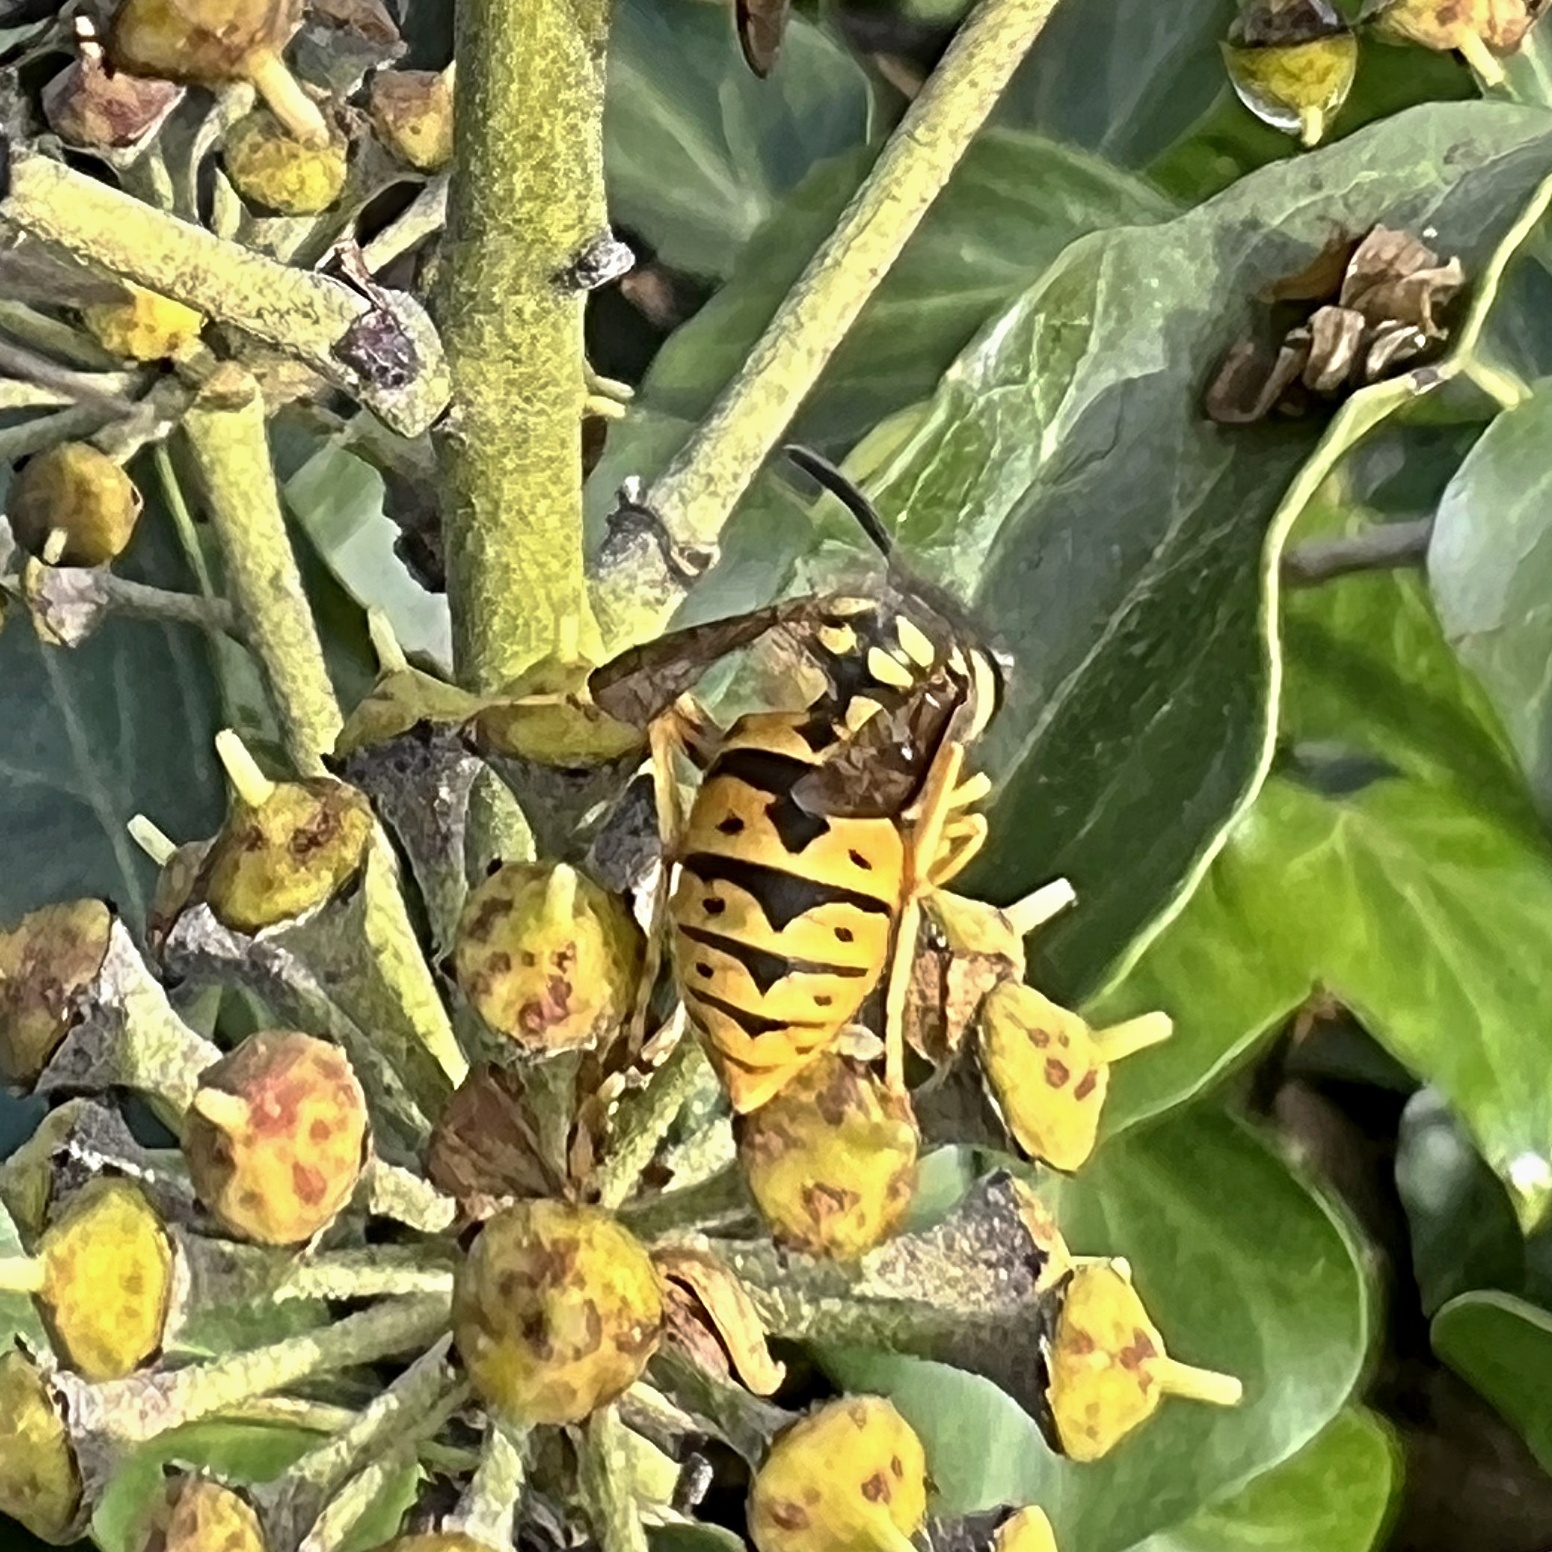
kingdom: Animalia
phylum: Arthropoda
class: Insecta
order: Hymenoptera
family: Vespidae
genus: Vespula
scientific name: Vespula germanica
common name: German wasp
